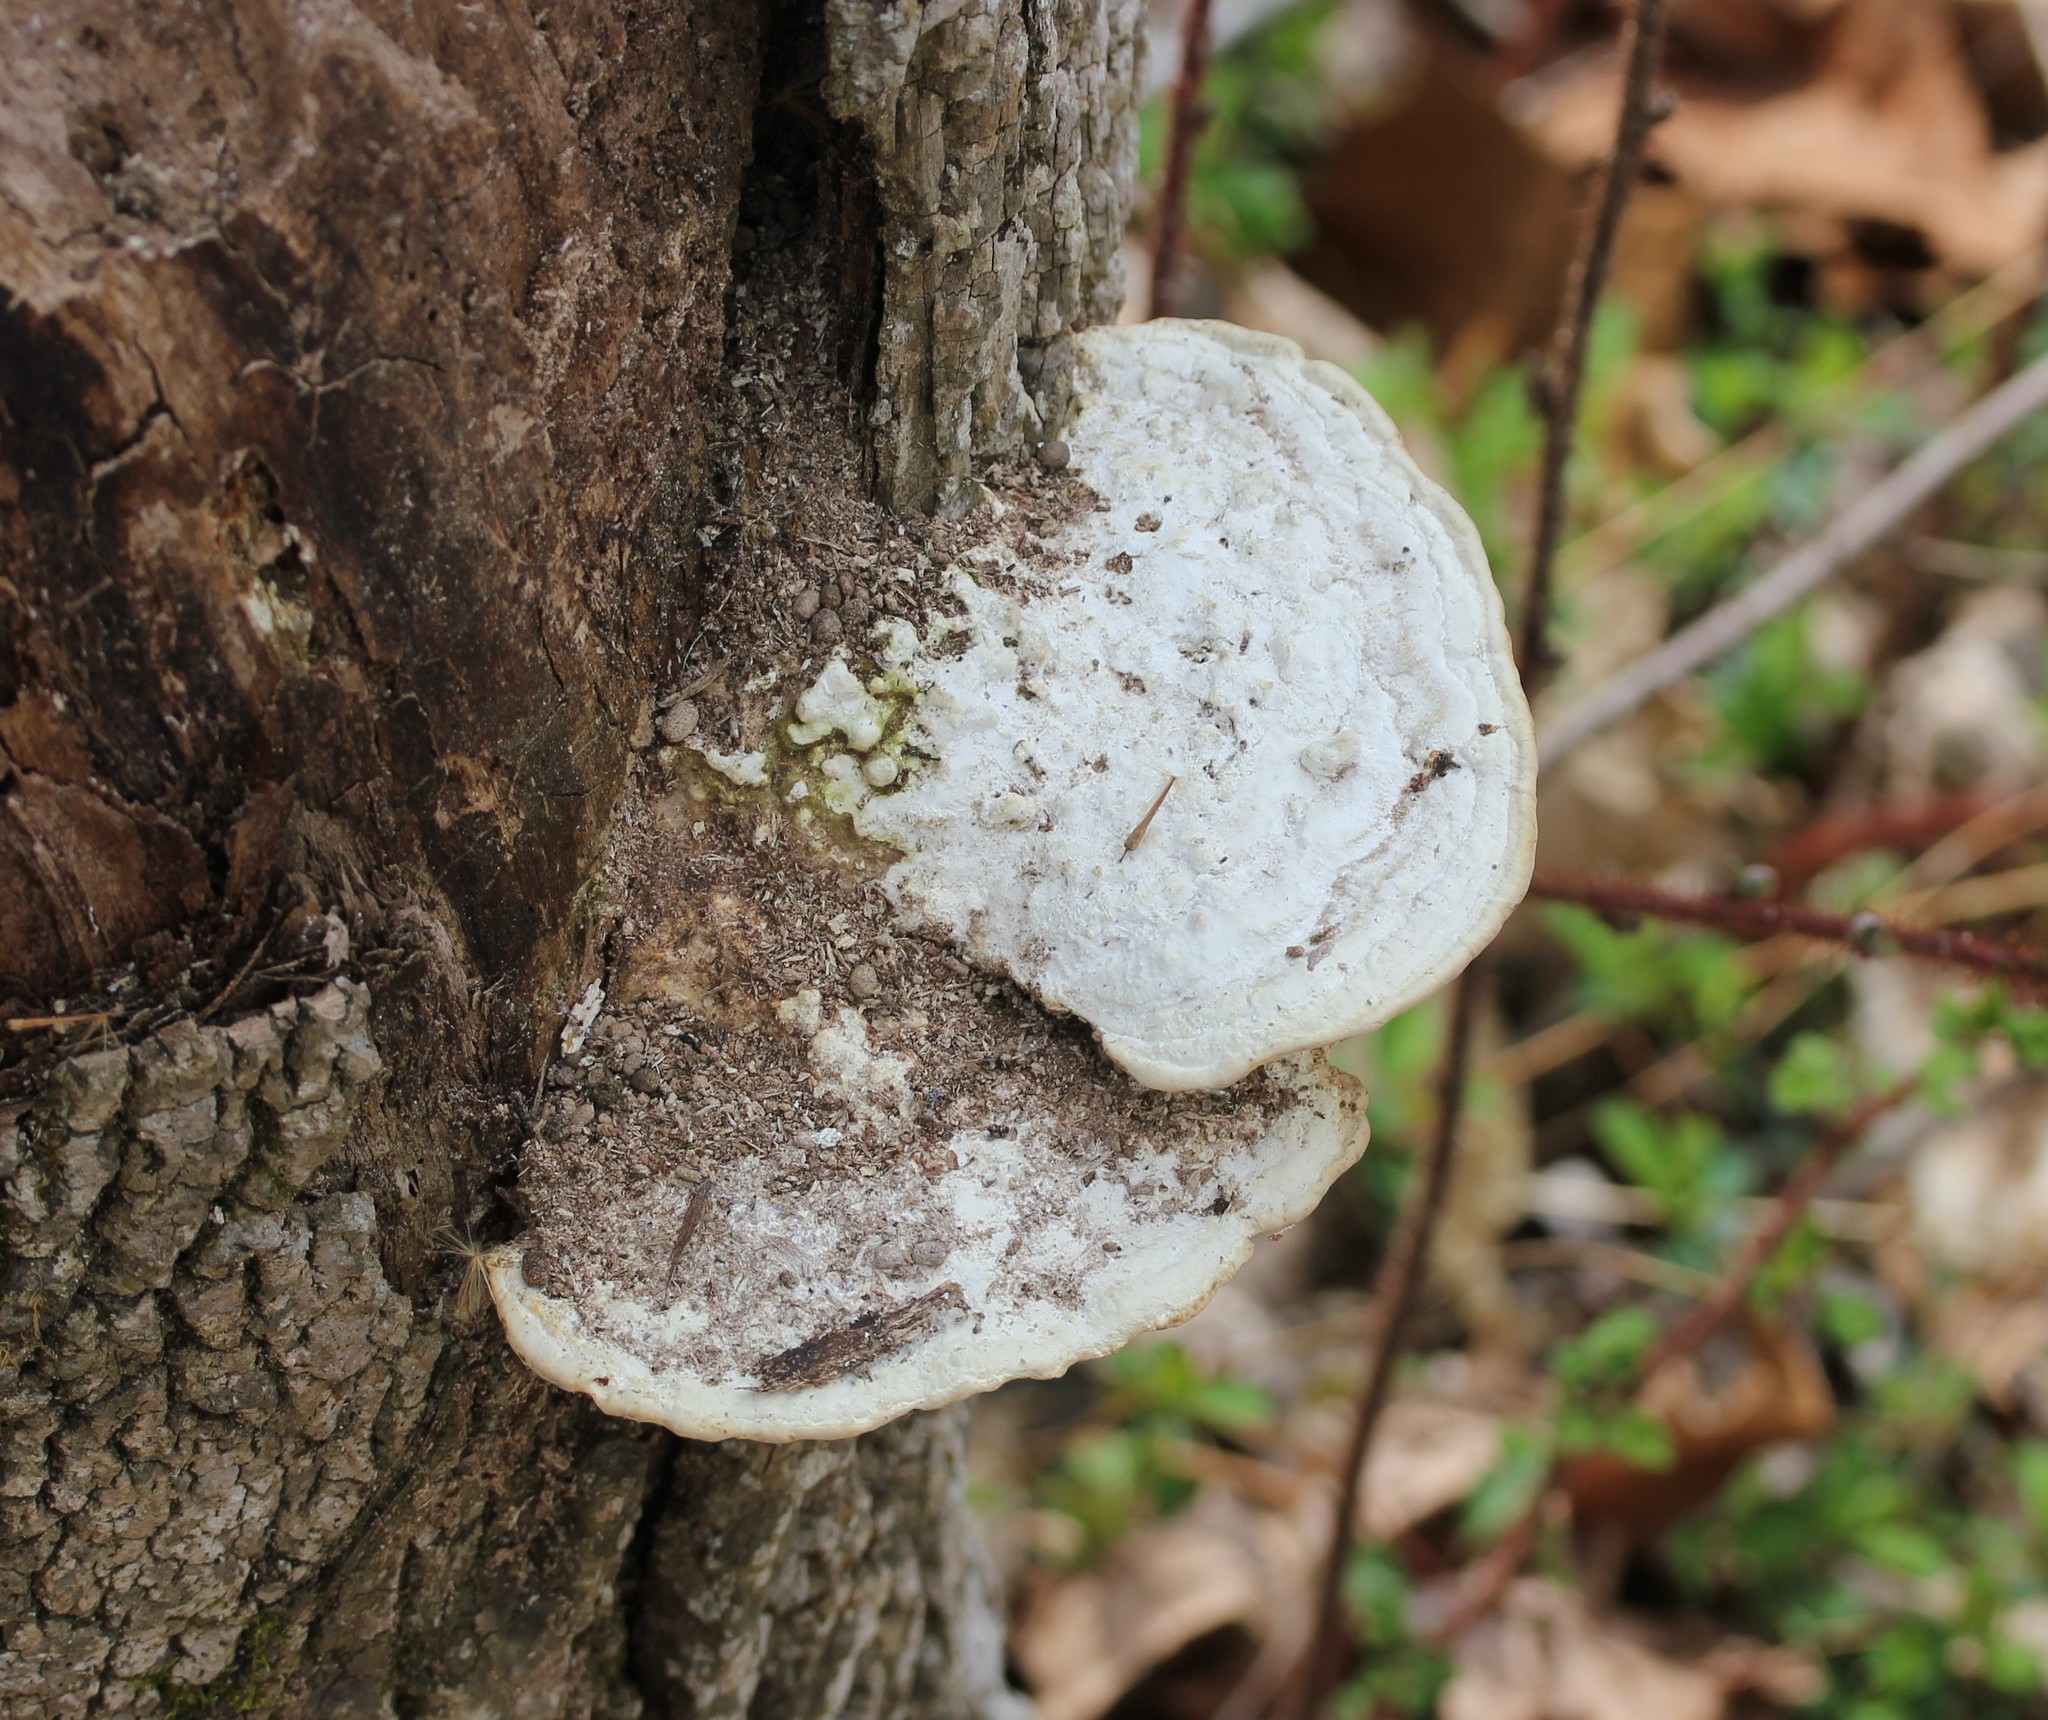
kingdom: Fungi
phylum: Basidiomycota
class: Agaricomycetes
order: Polyporales
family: Polyporaceae
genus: Trametes
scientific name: Trametes gibbosa
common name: Lumpy bracket
